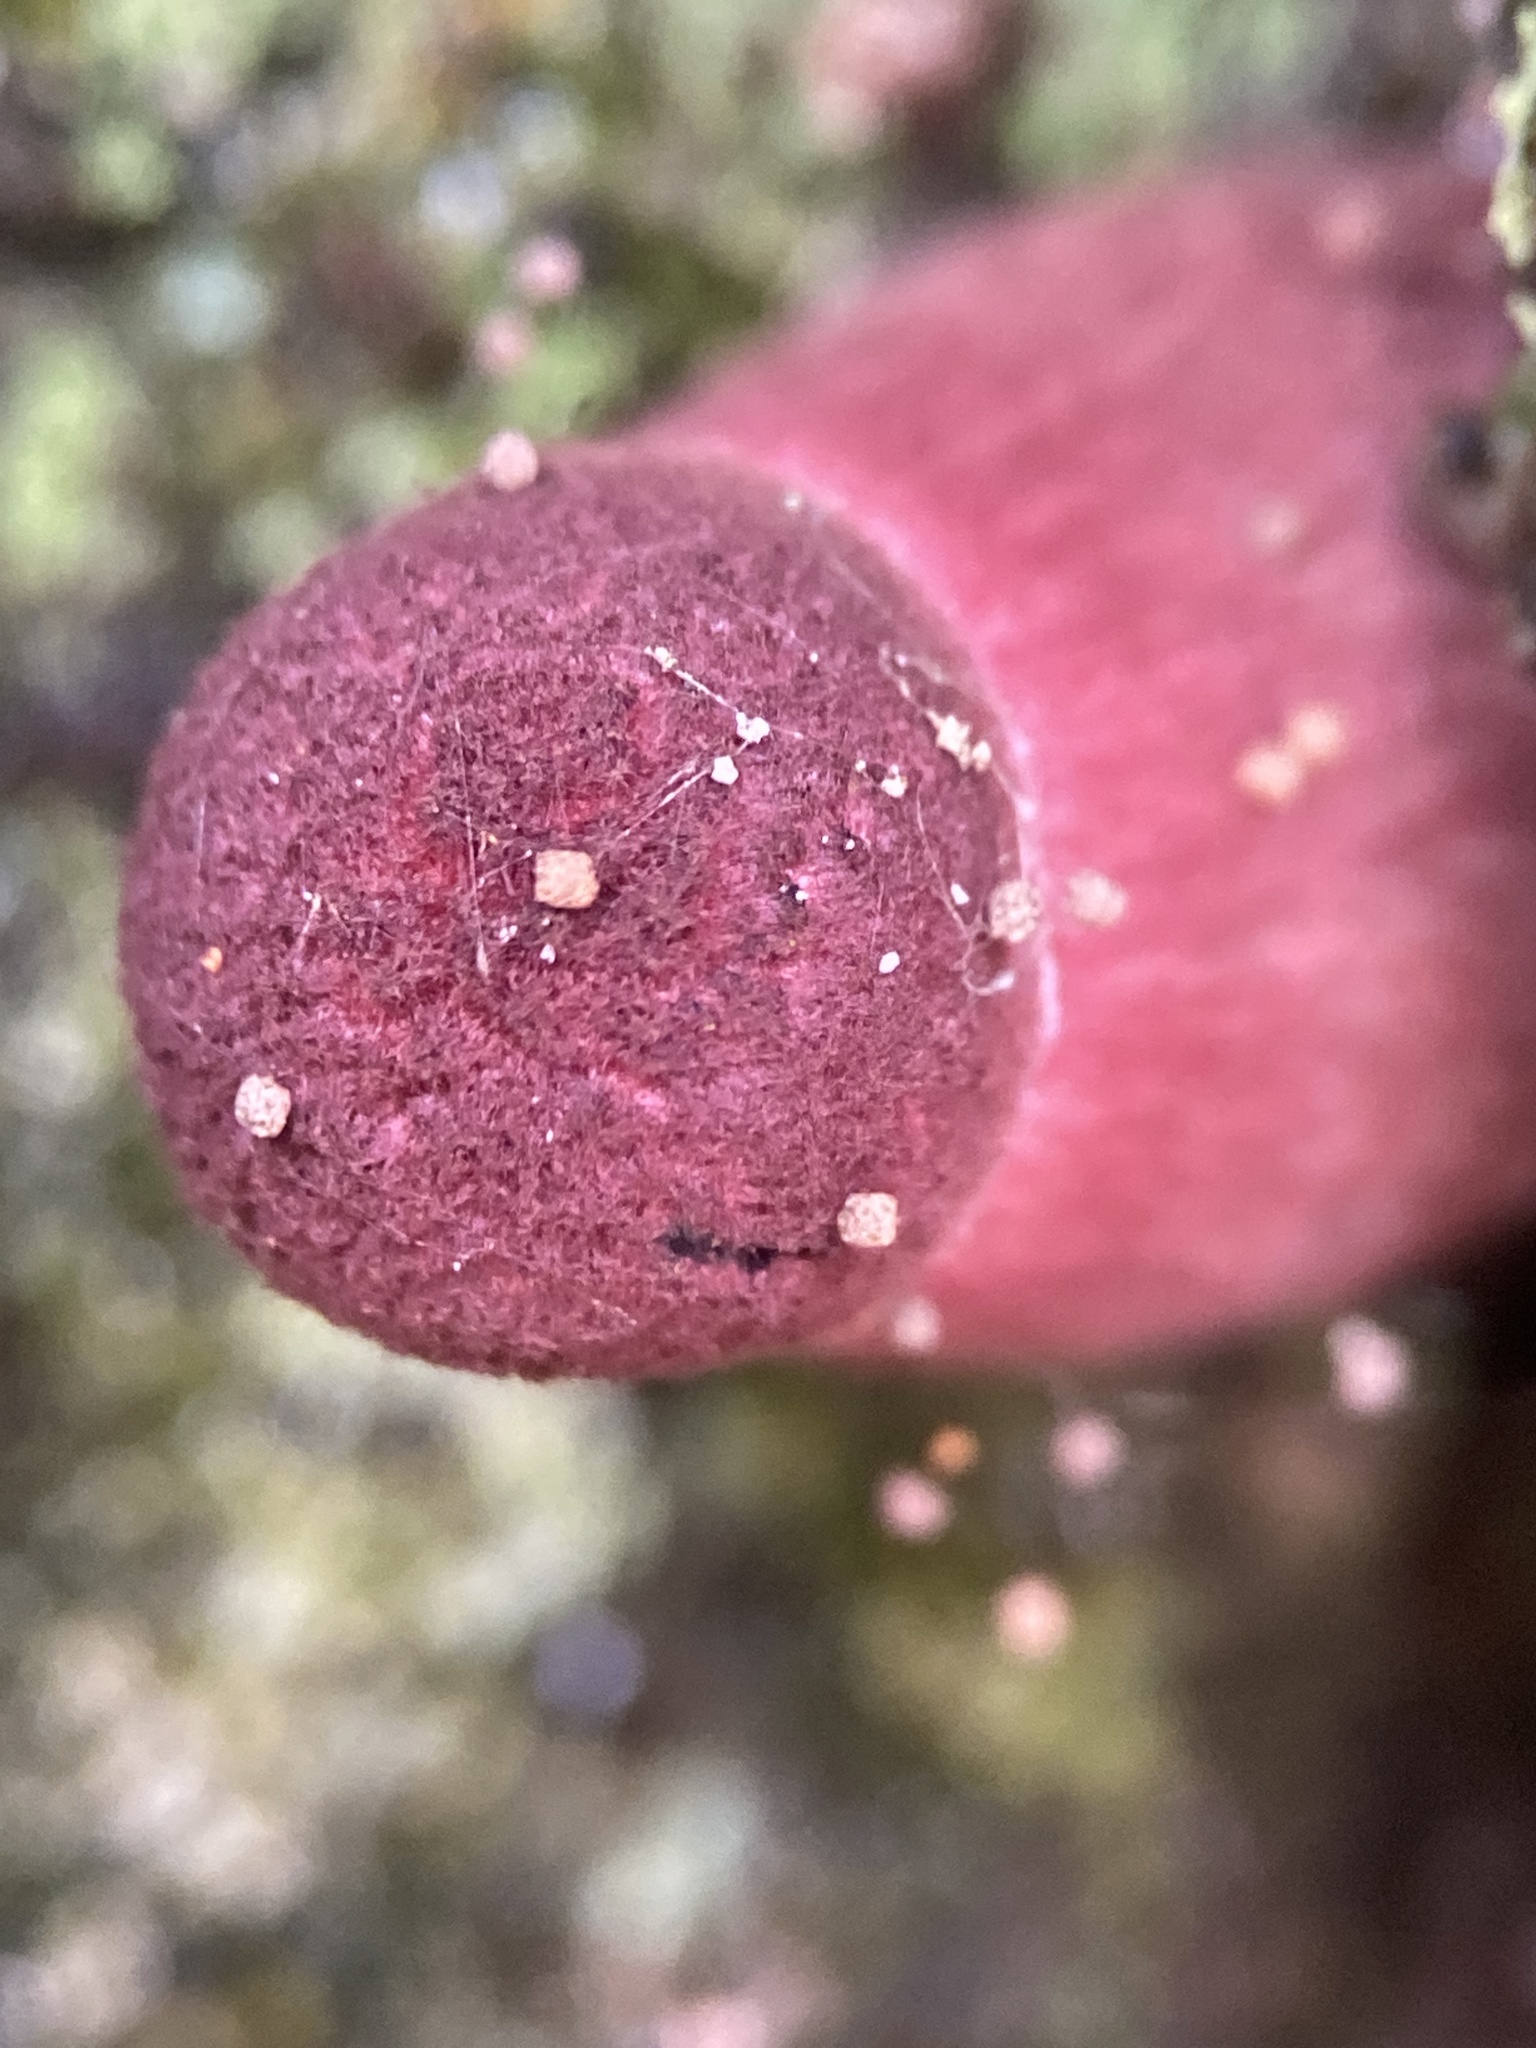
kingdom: Fungi
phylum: Basidiomycota
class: Agaricomycetes
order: Boletales
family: Boletaceae
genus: Boletellus
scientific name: Boletellus emodensis
